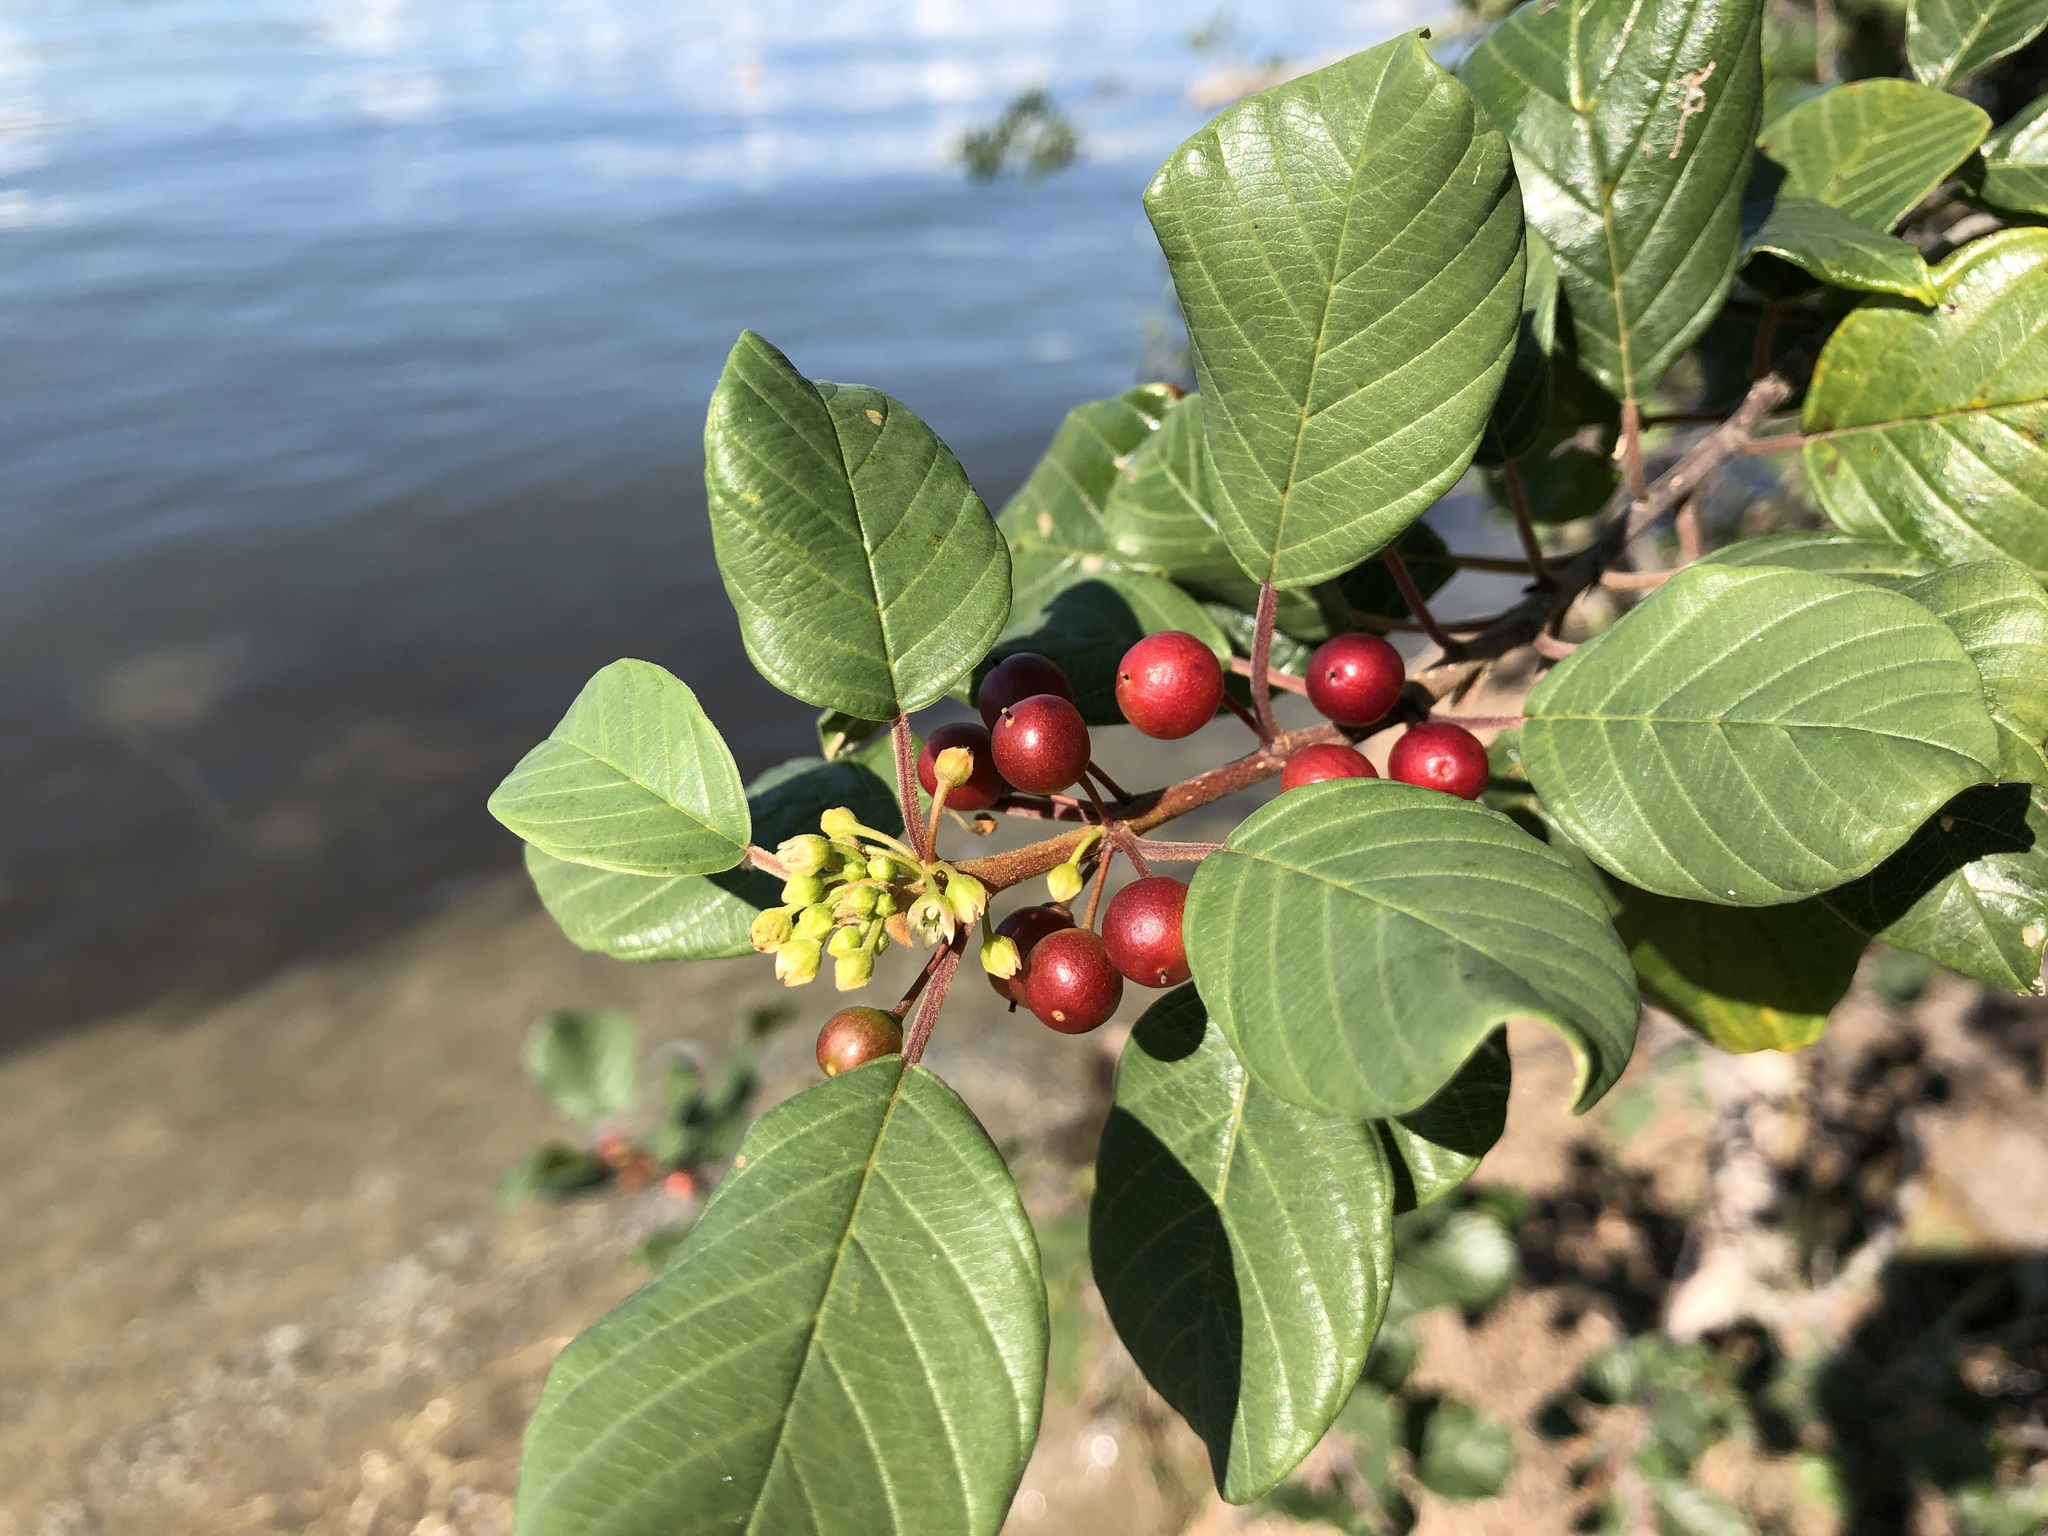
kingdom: Plantae
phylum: Tracheophyta
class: Magnoliopsida
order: Rosales
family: Rhamnaceae
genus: Frangula
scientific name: Frangula alnus
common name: Alder buckthorn
